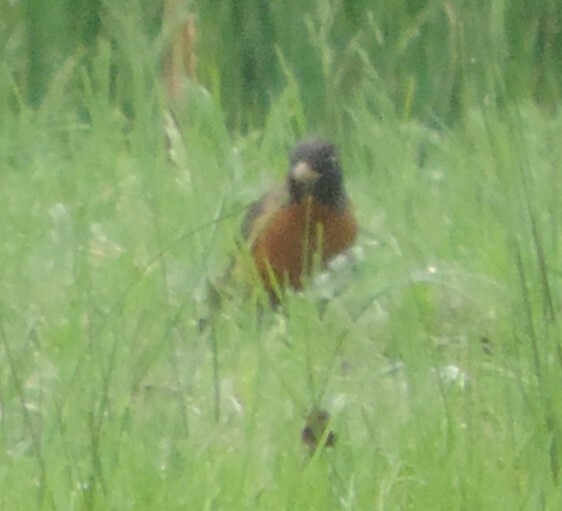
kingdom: Animalia
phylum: Chordata
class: Aves
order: Passeriformes
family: Turdidae
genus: Turdus
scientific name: Turdus migratorius
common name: American robin
